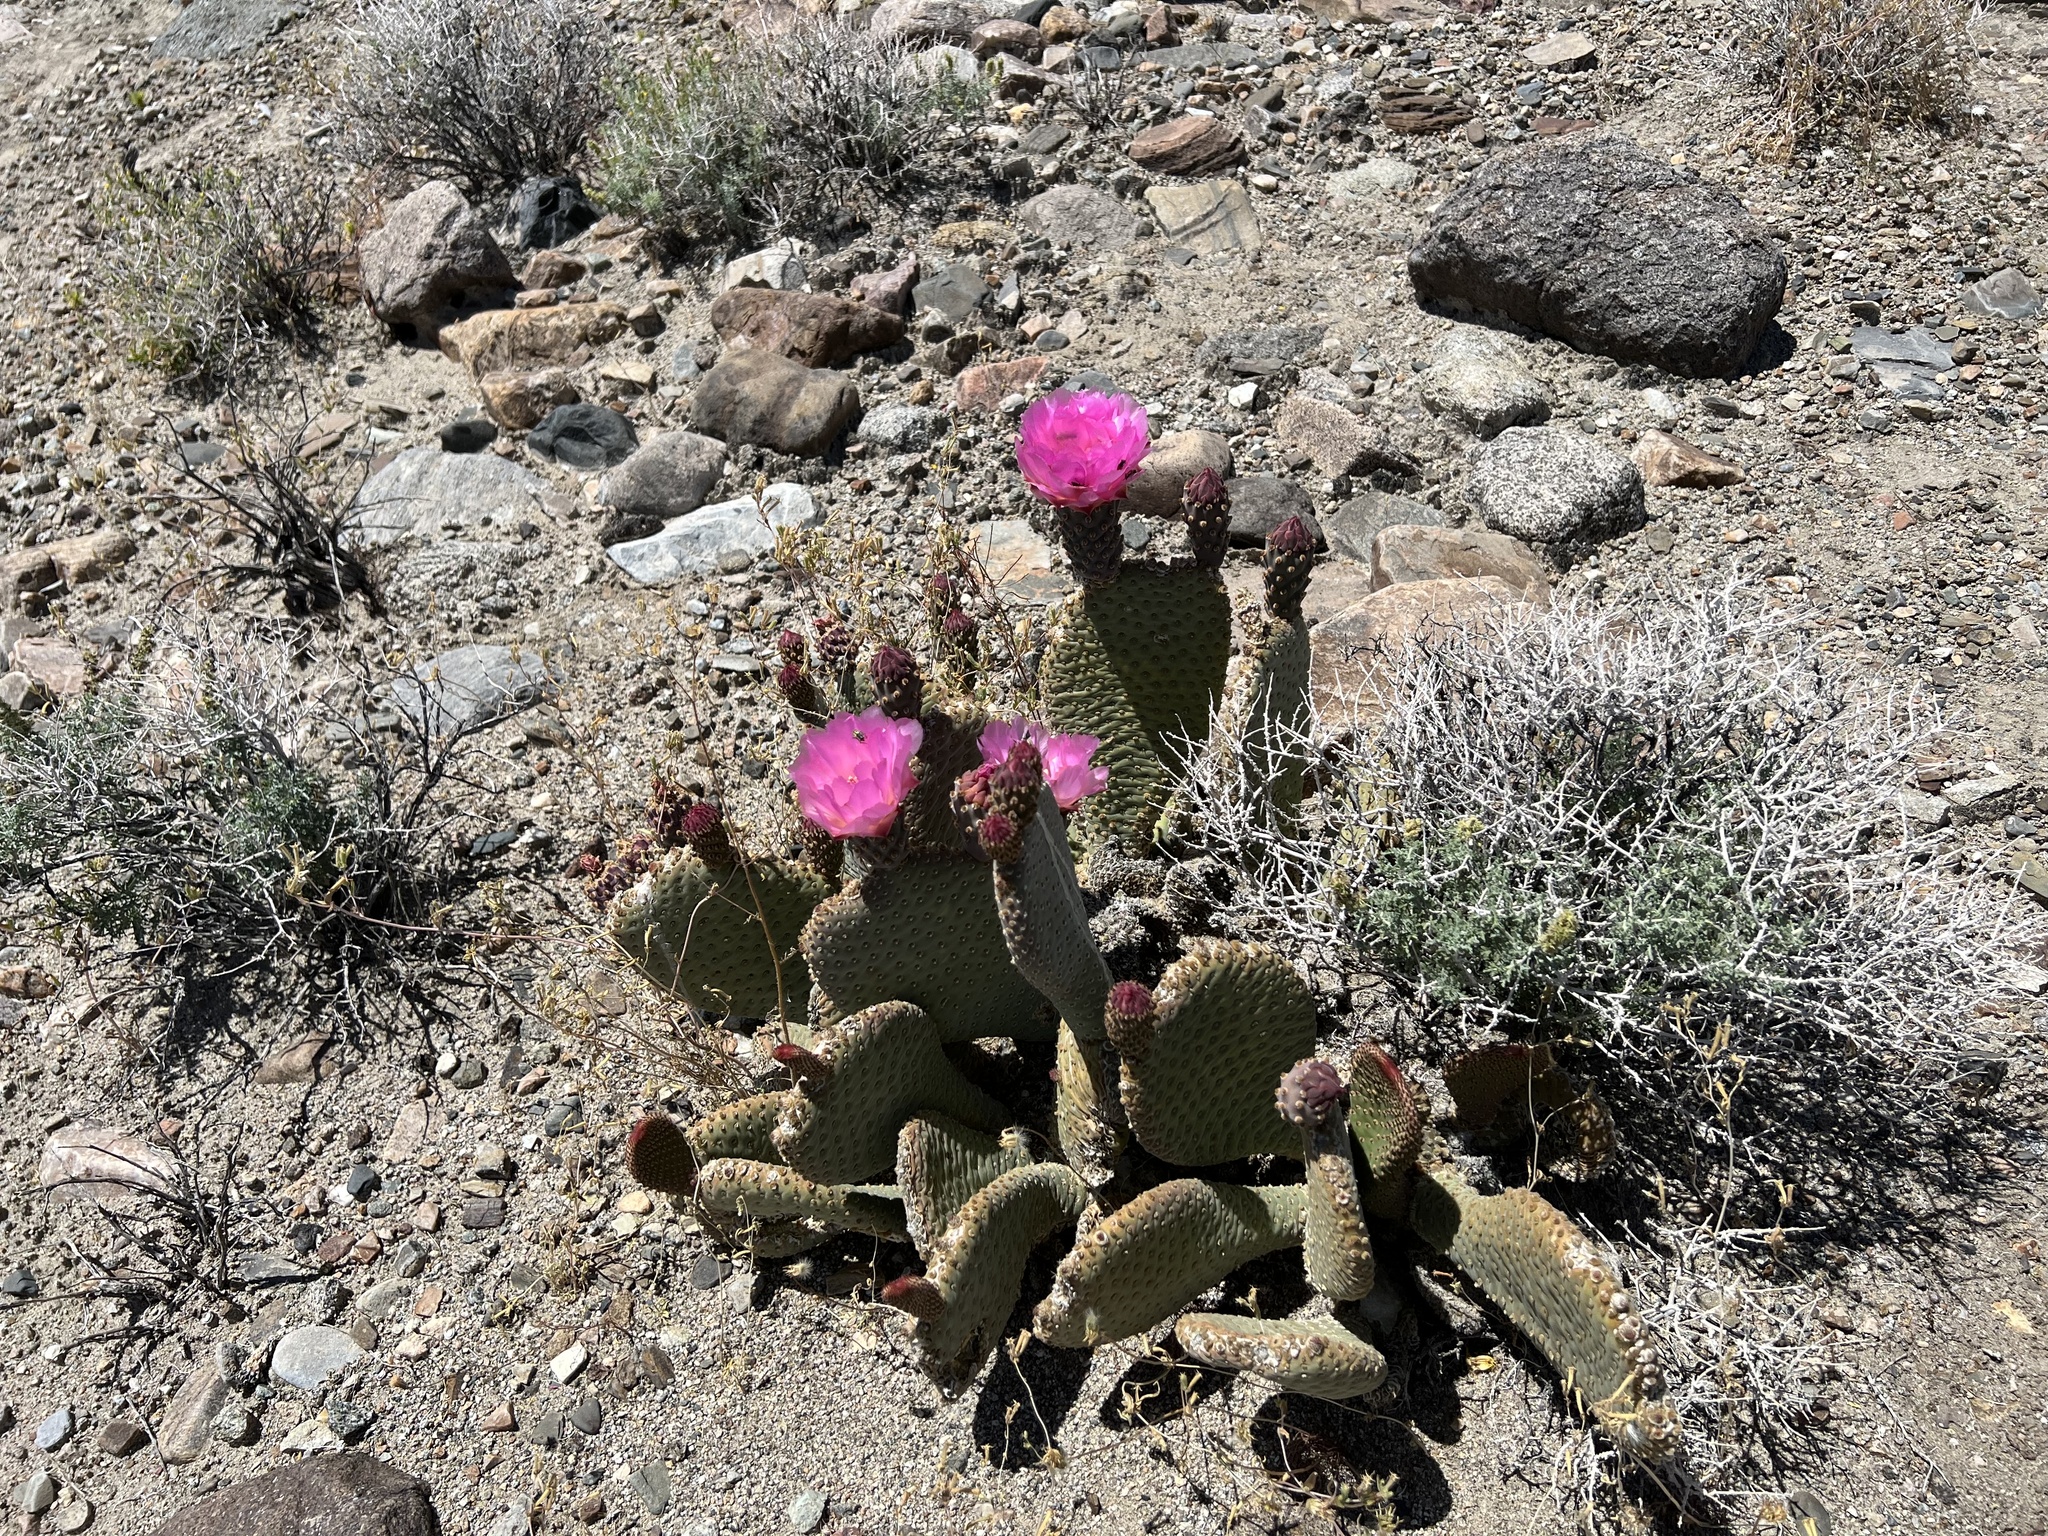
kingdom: Plantae
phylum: Tracheophyta
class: Magnoliopsida
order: Caryophyllales
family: Cactaceae
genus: Opuntia
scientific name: Opuntia basilaris
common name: Beavertail prickly-pear
